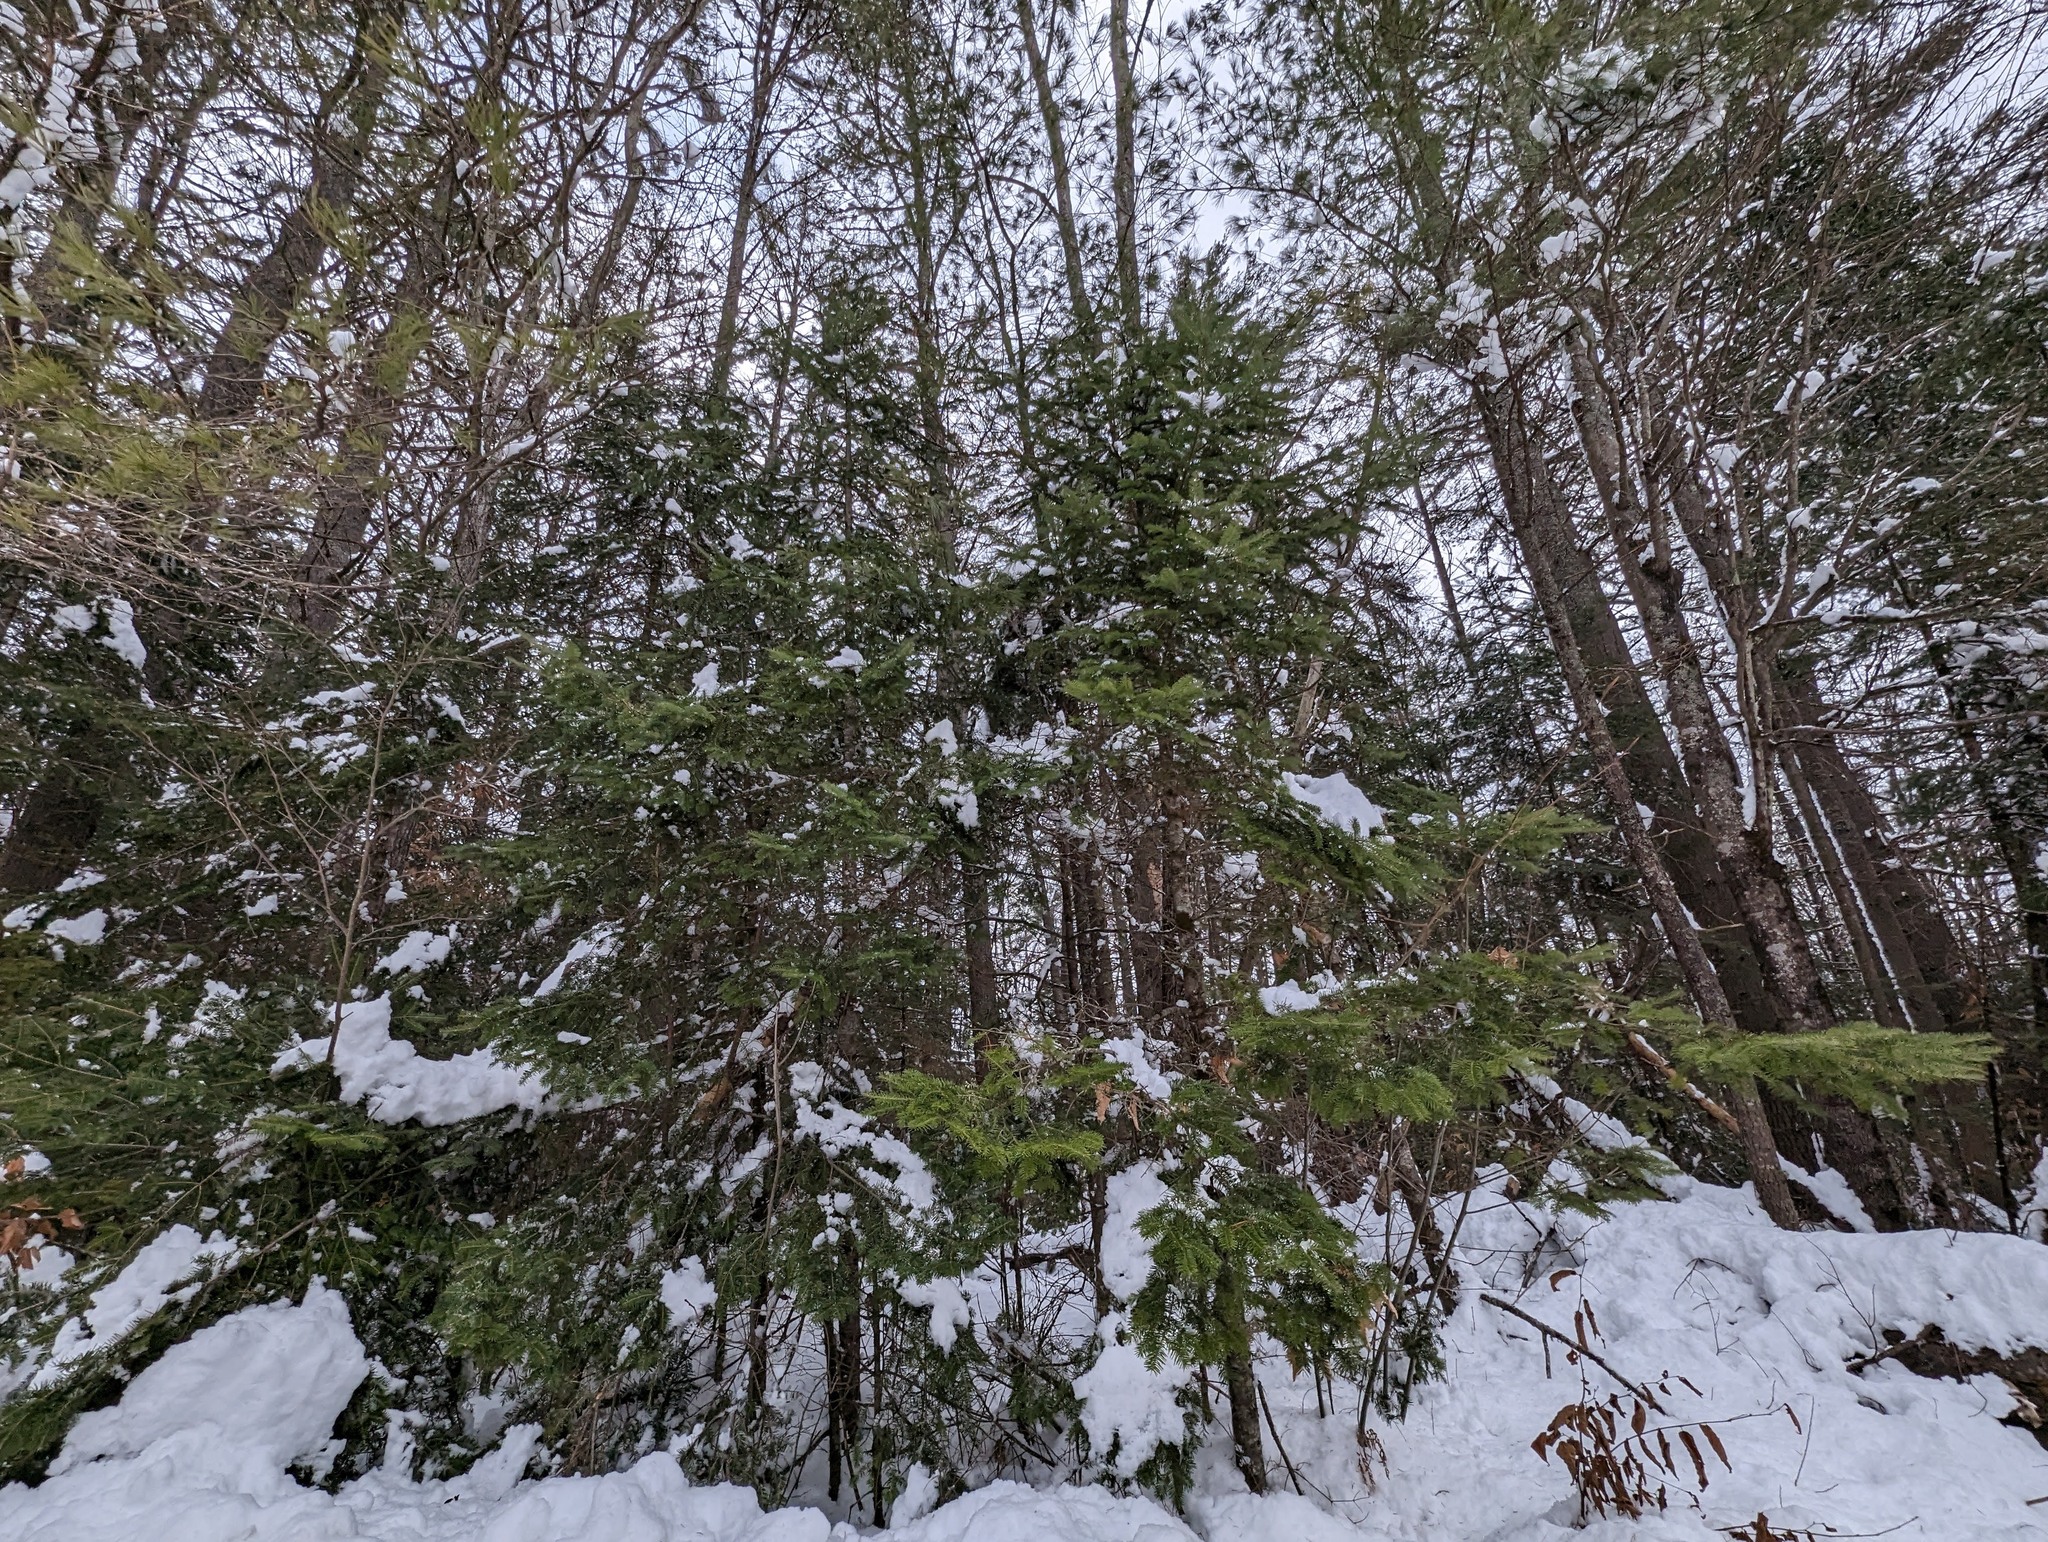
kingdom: Plantae
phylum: Tracheophyta
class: Pinopsida
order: Pinales
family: Pinaceae
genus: Abies
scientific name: Abies balsamea
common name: Balsam fir
